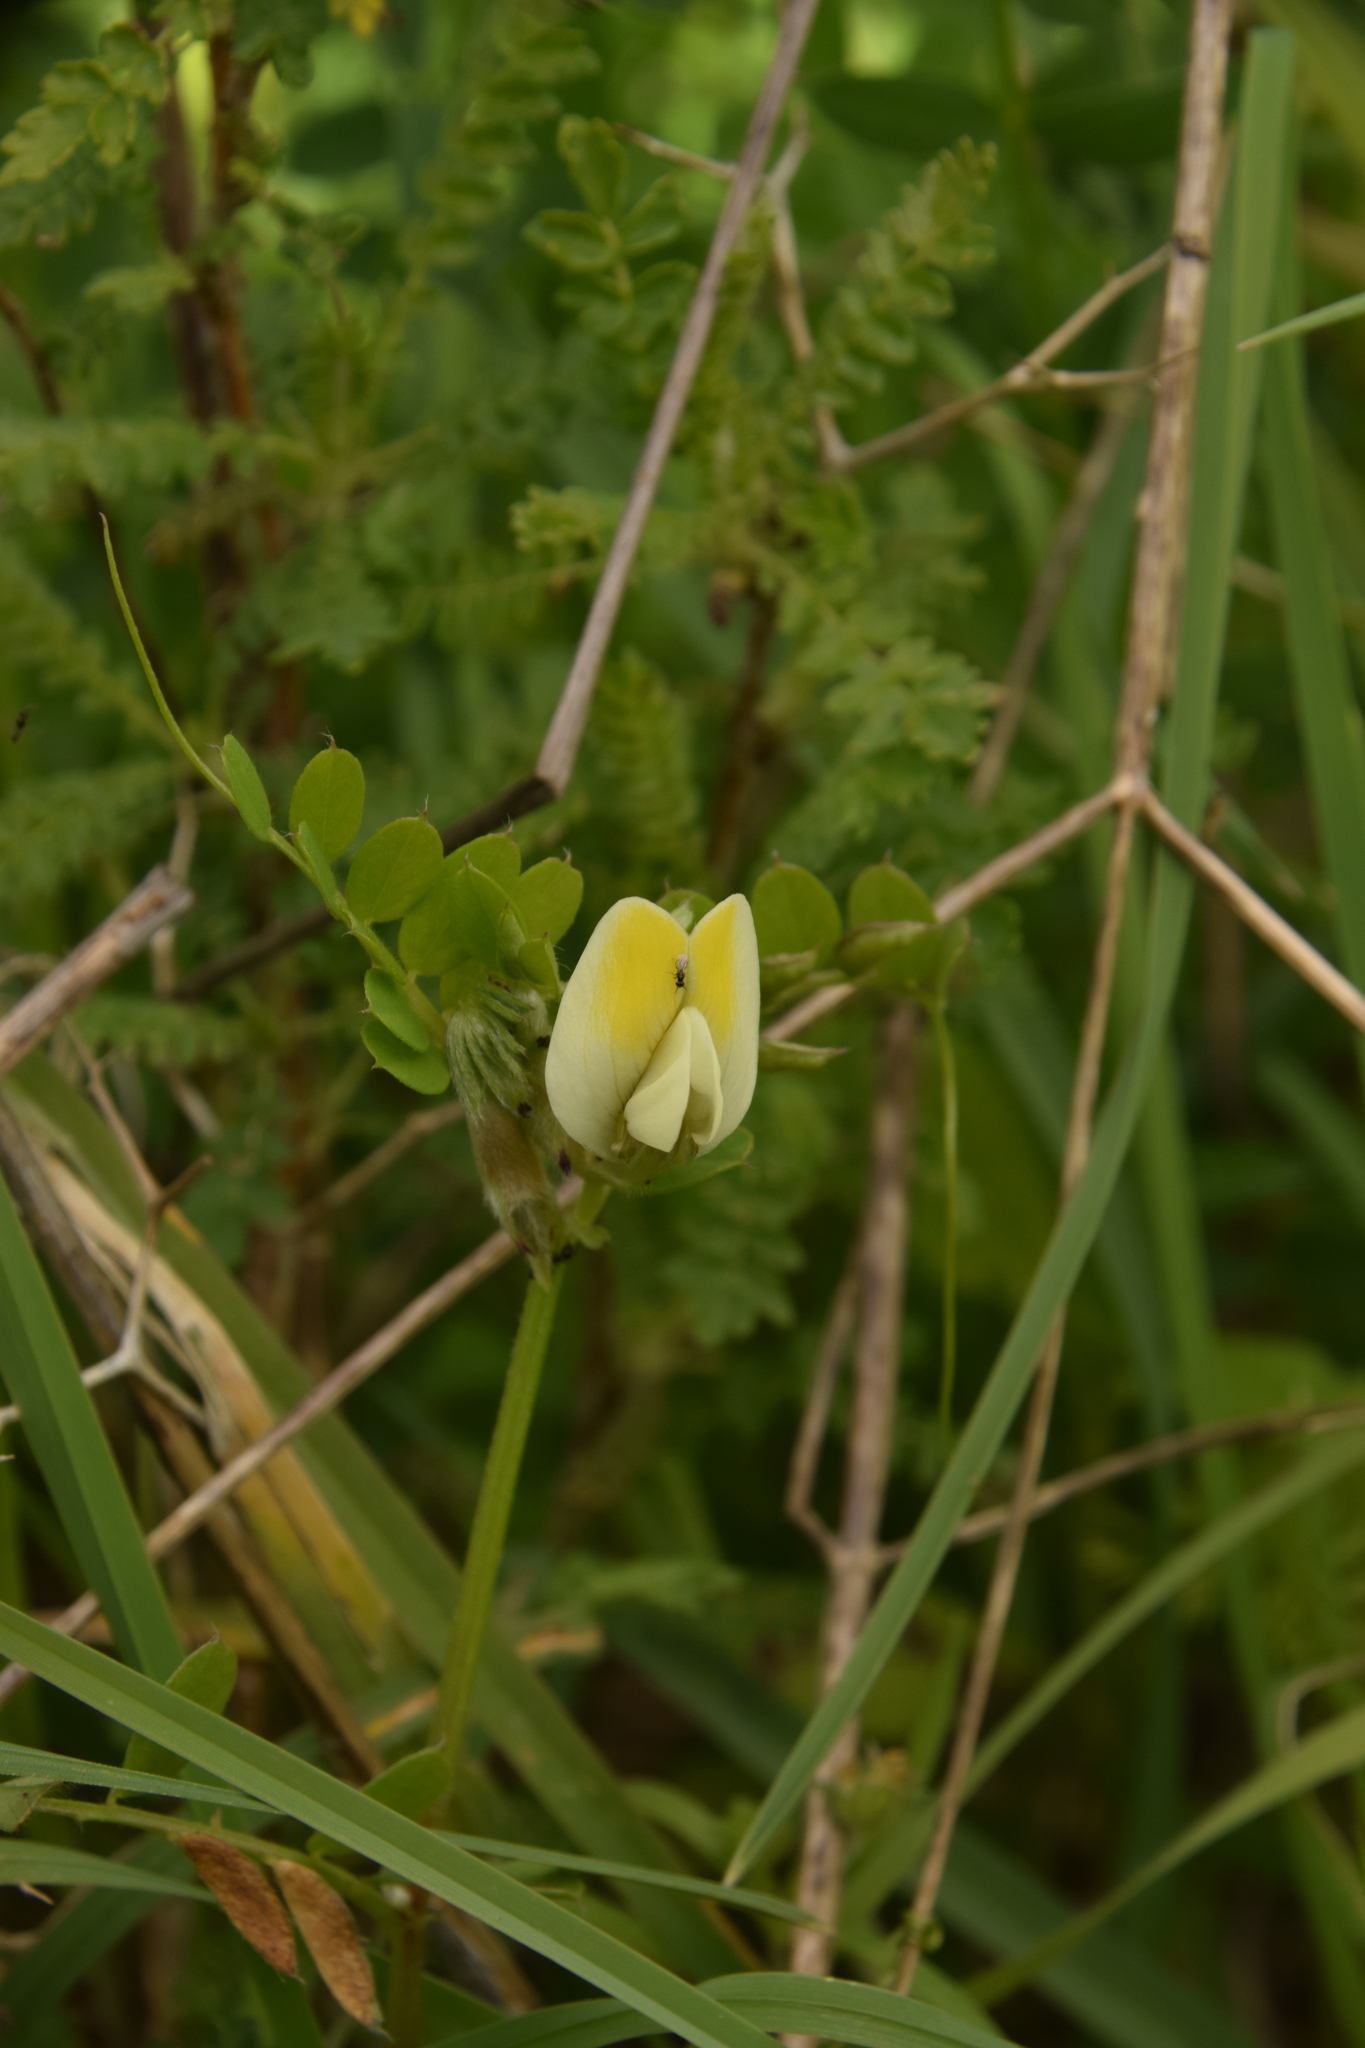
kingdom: Plantae
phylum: Tracheophyta
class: Magnoliopsida
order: Fabales
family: Fabaceae
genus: Vicia
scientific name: Vicia hybrida
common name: Hairy yellow vetch
